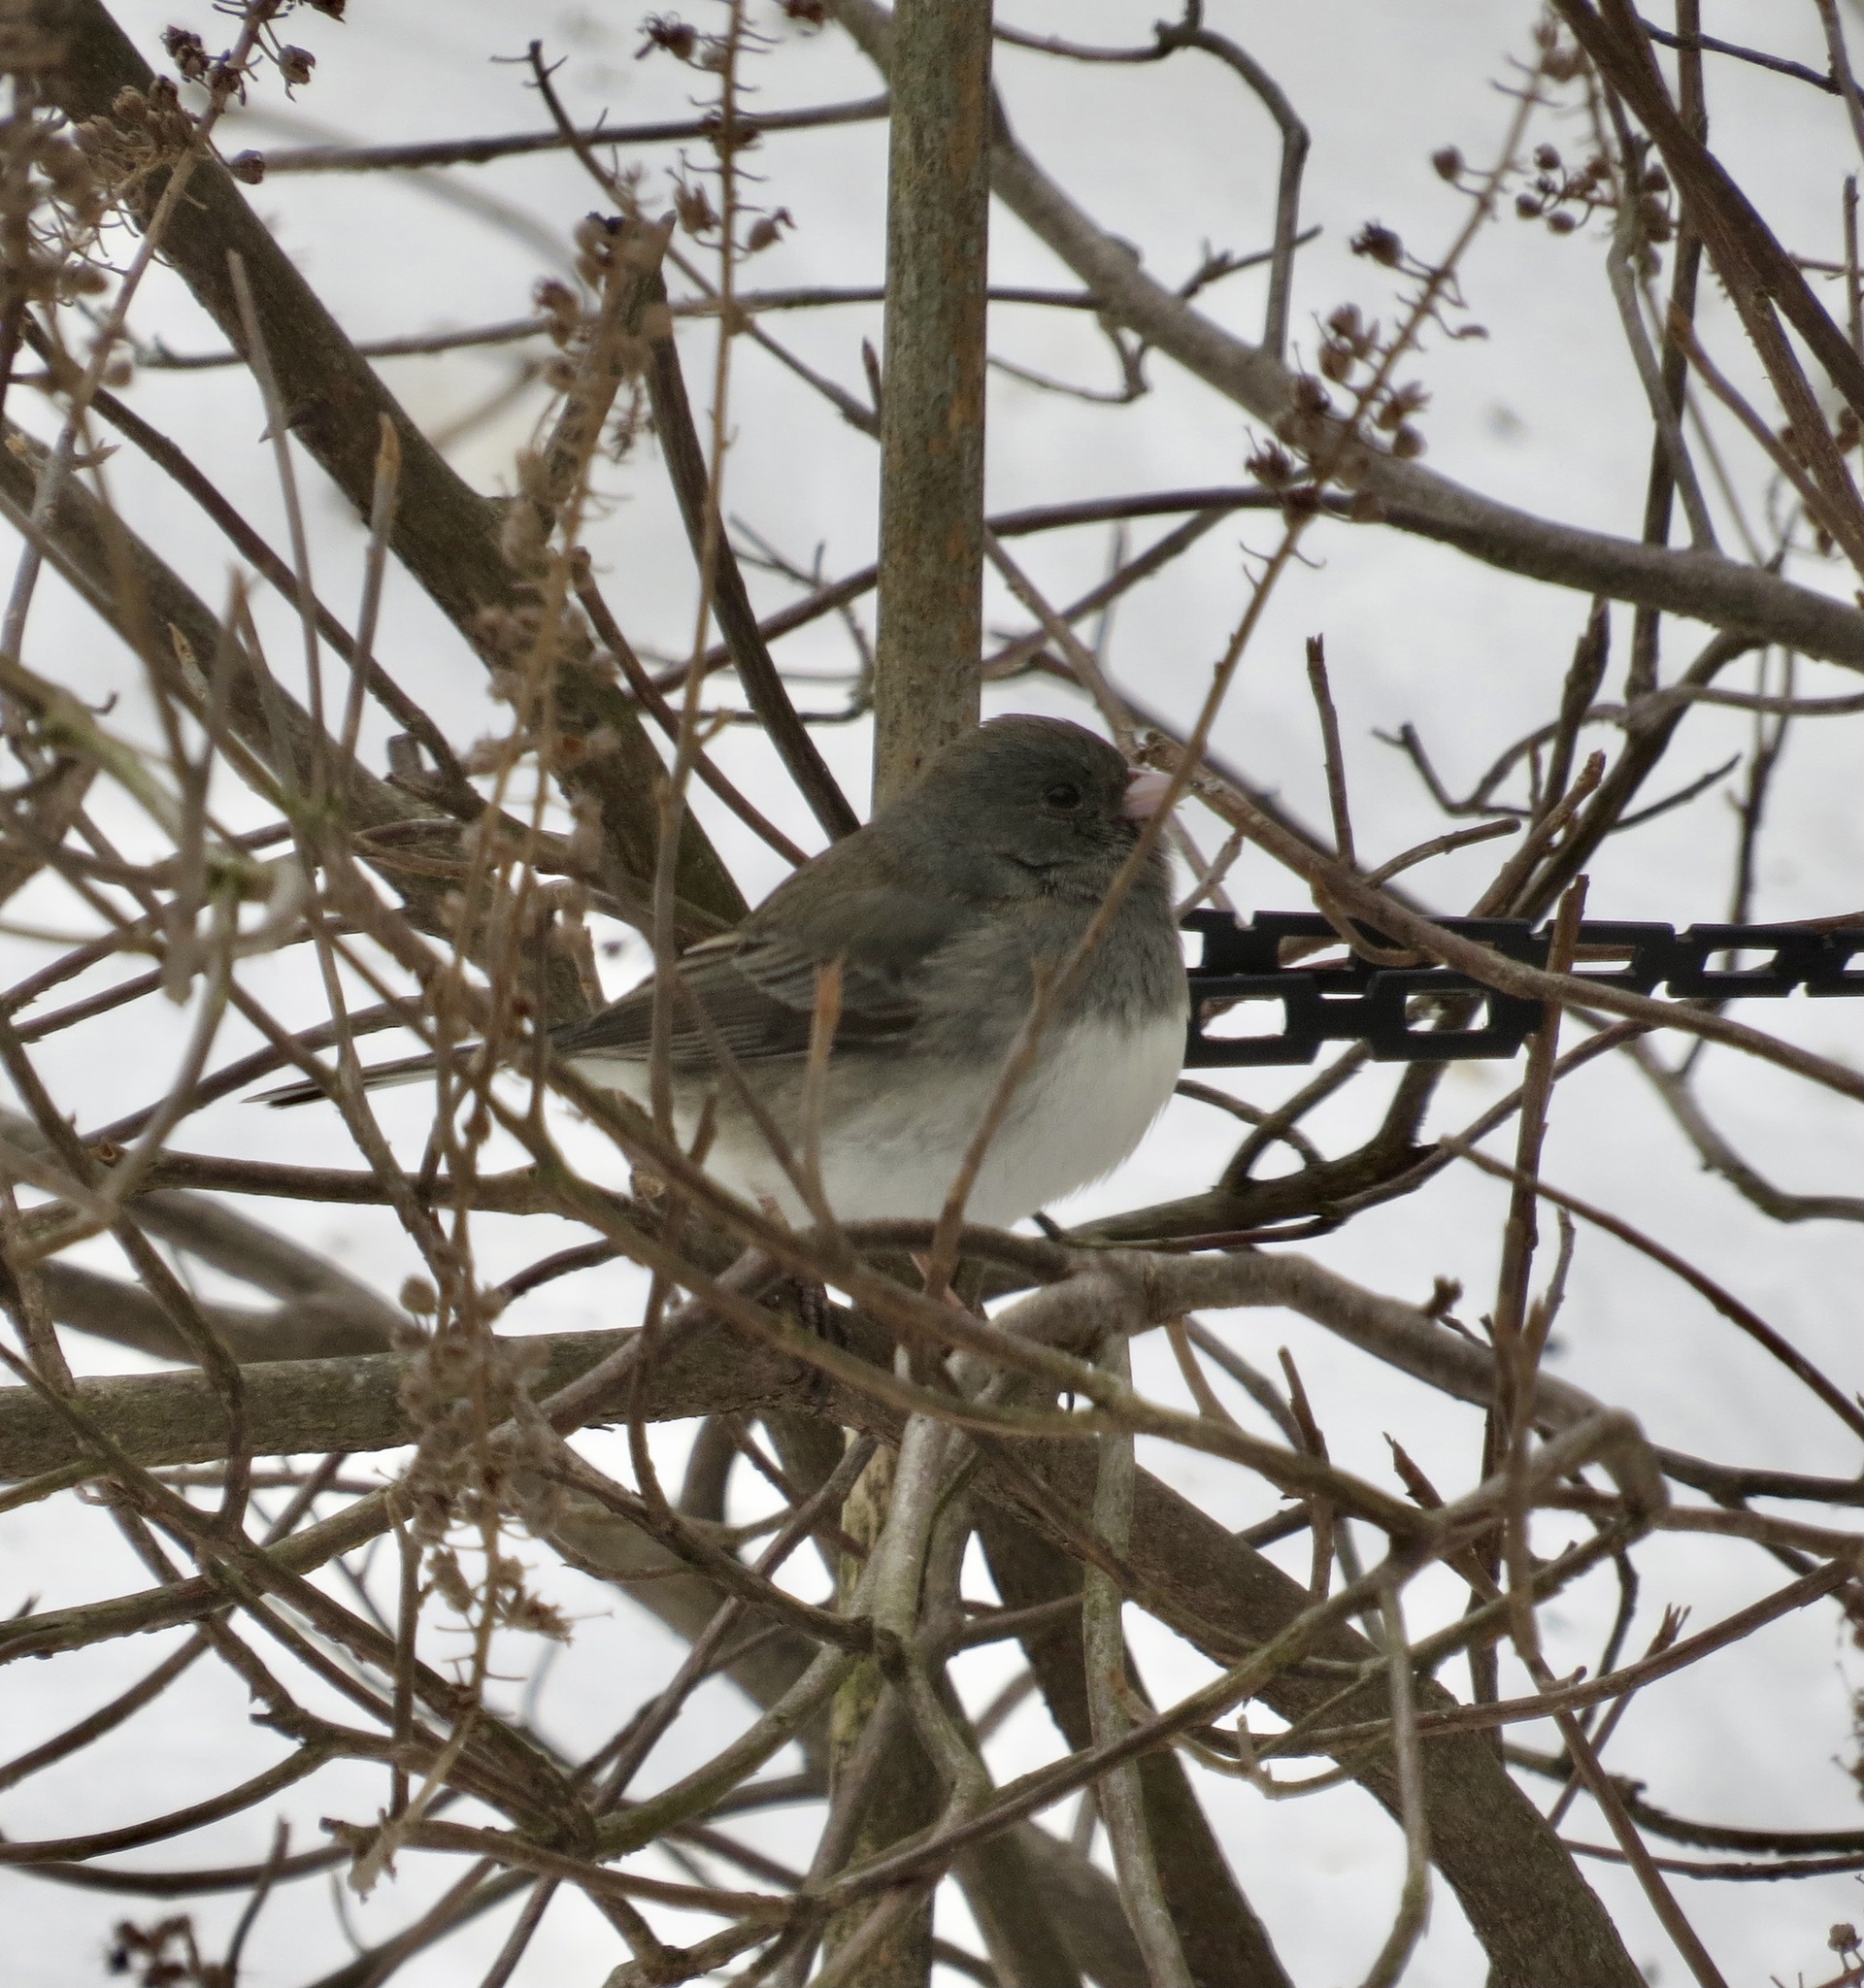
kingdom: Animalia
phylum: Chordata
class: Aves
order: Passeriformes
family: Passerellidae
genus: Junco
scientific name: Junco hyemalis
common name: Dark-eyed junco
